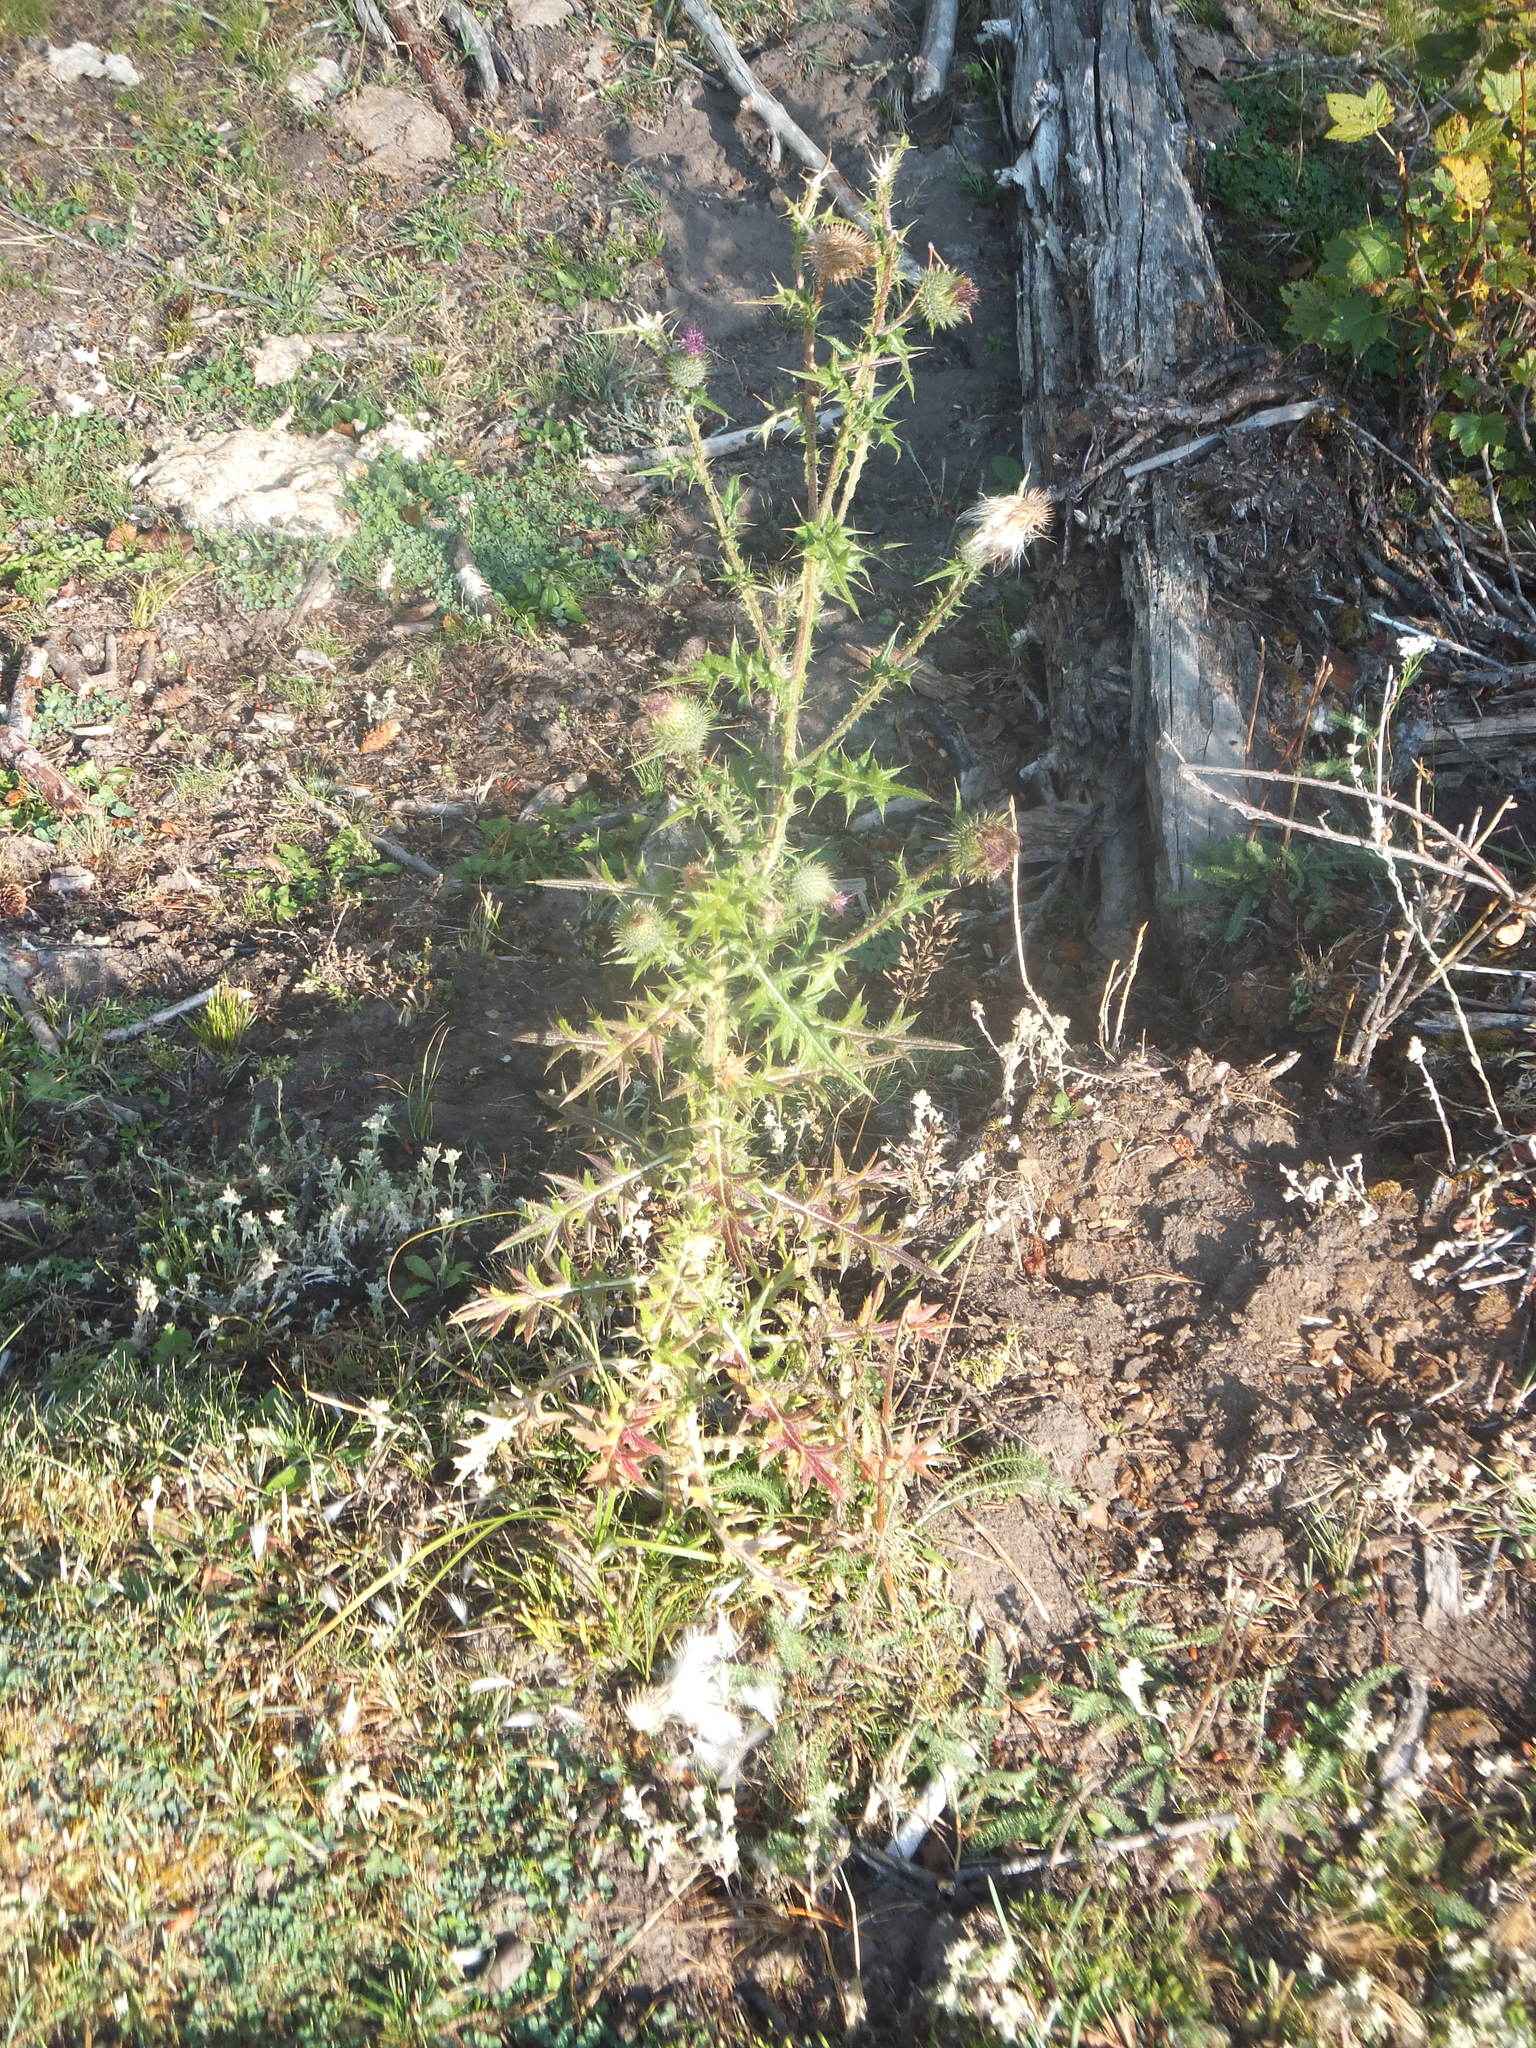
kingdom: Plantae
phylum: Tracheophyta
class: Magnoliopsida
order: Asterales
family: Asteraceae
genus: Cirsium
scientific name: Cirsium vulgare
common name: Bull thistle
